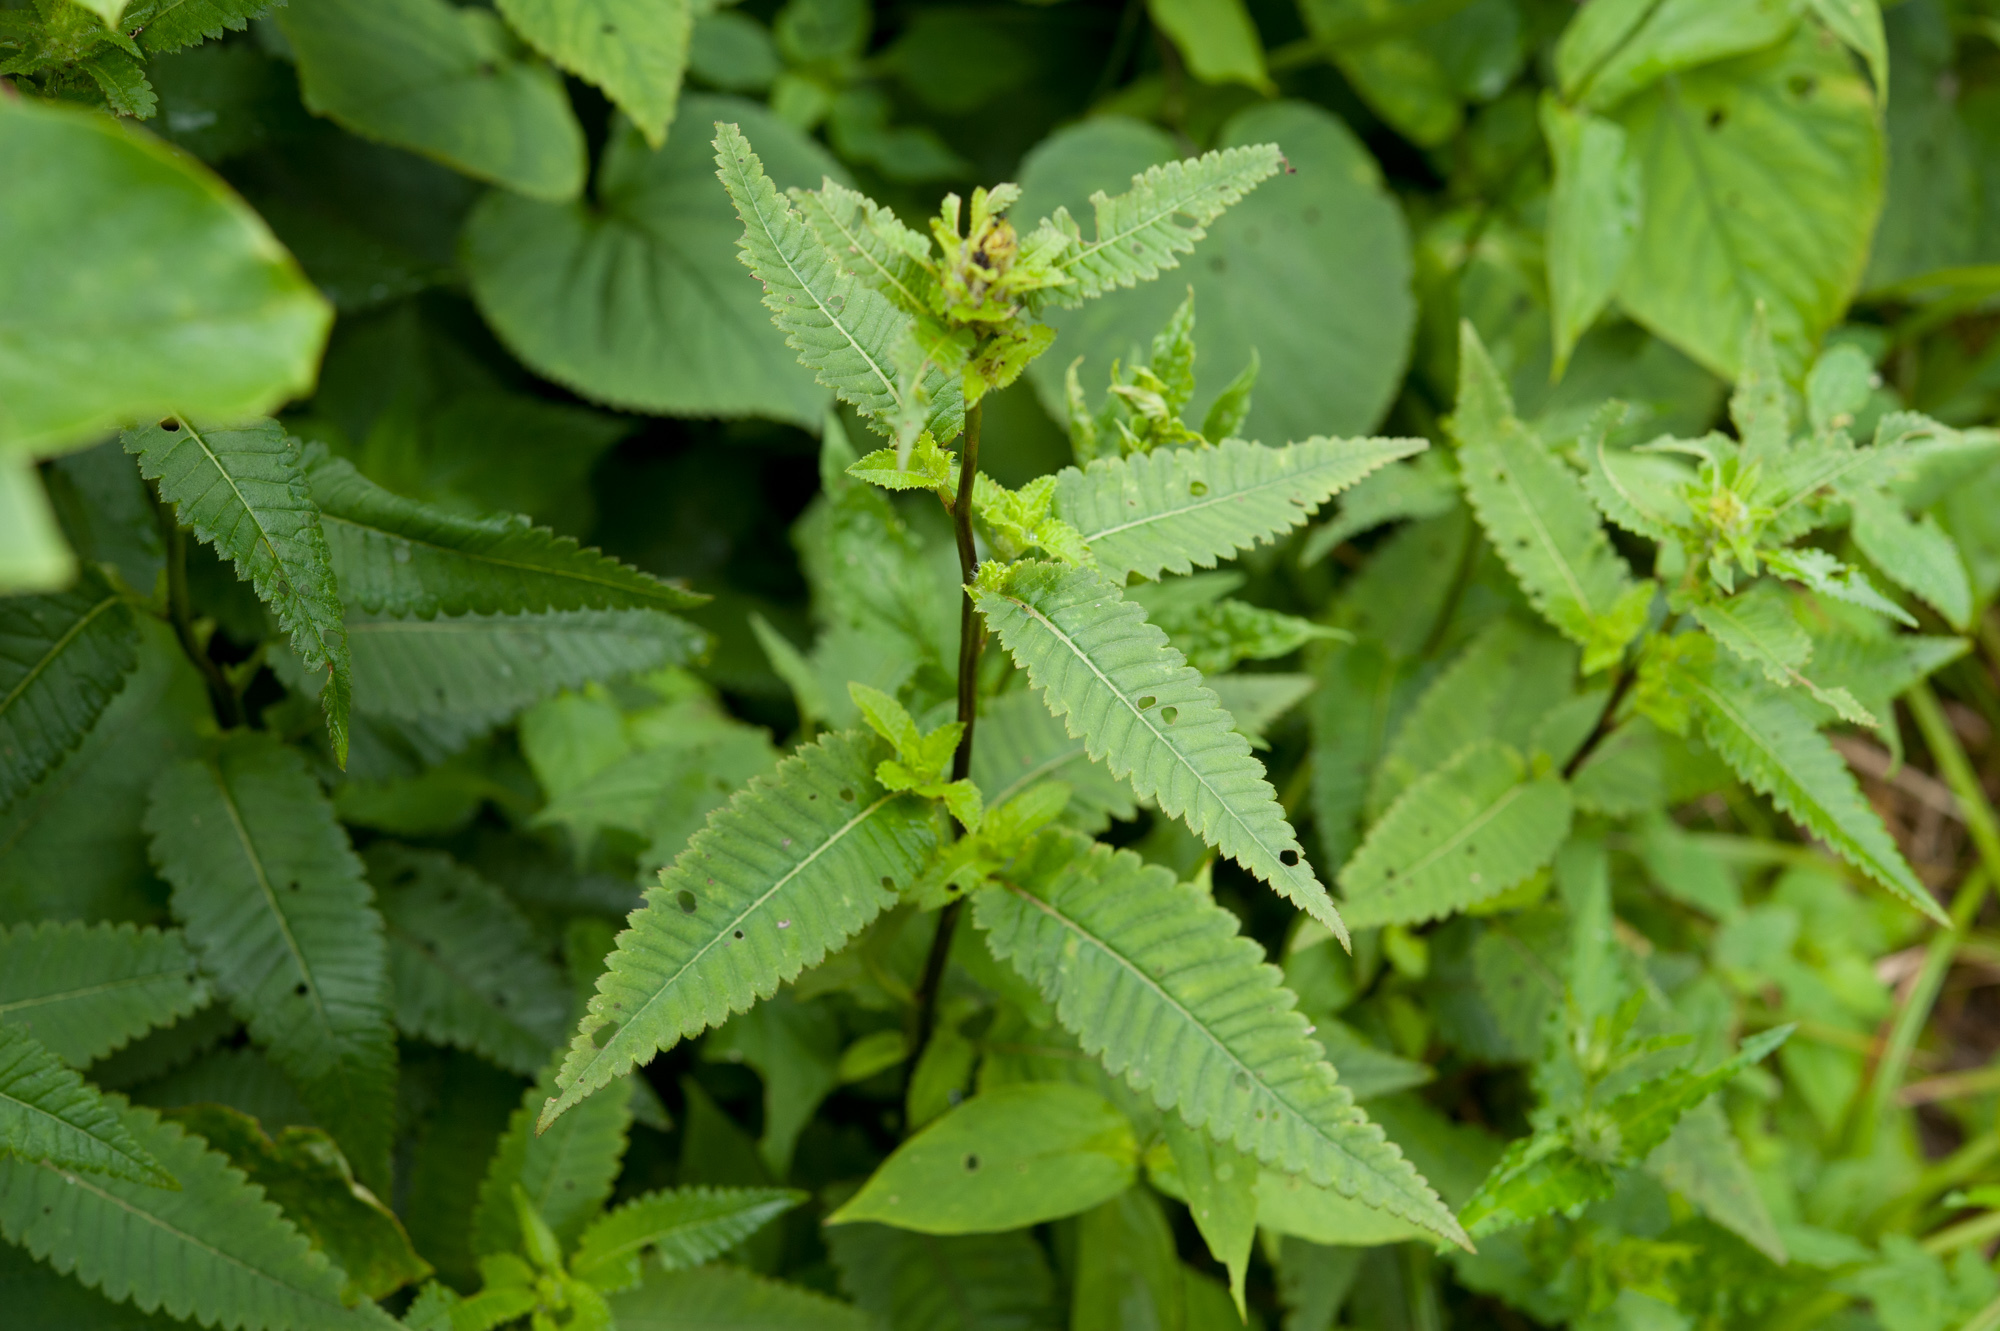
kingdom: Plantae
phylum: Tracheophyta
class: Magnoliopsida
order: Lamiales
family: Orobanchaceae
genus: Pedicularis
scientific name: Pedicularis resupinata
